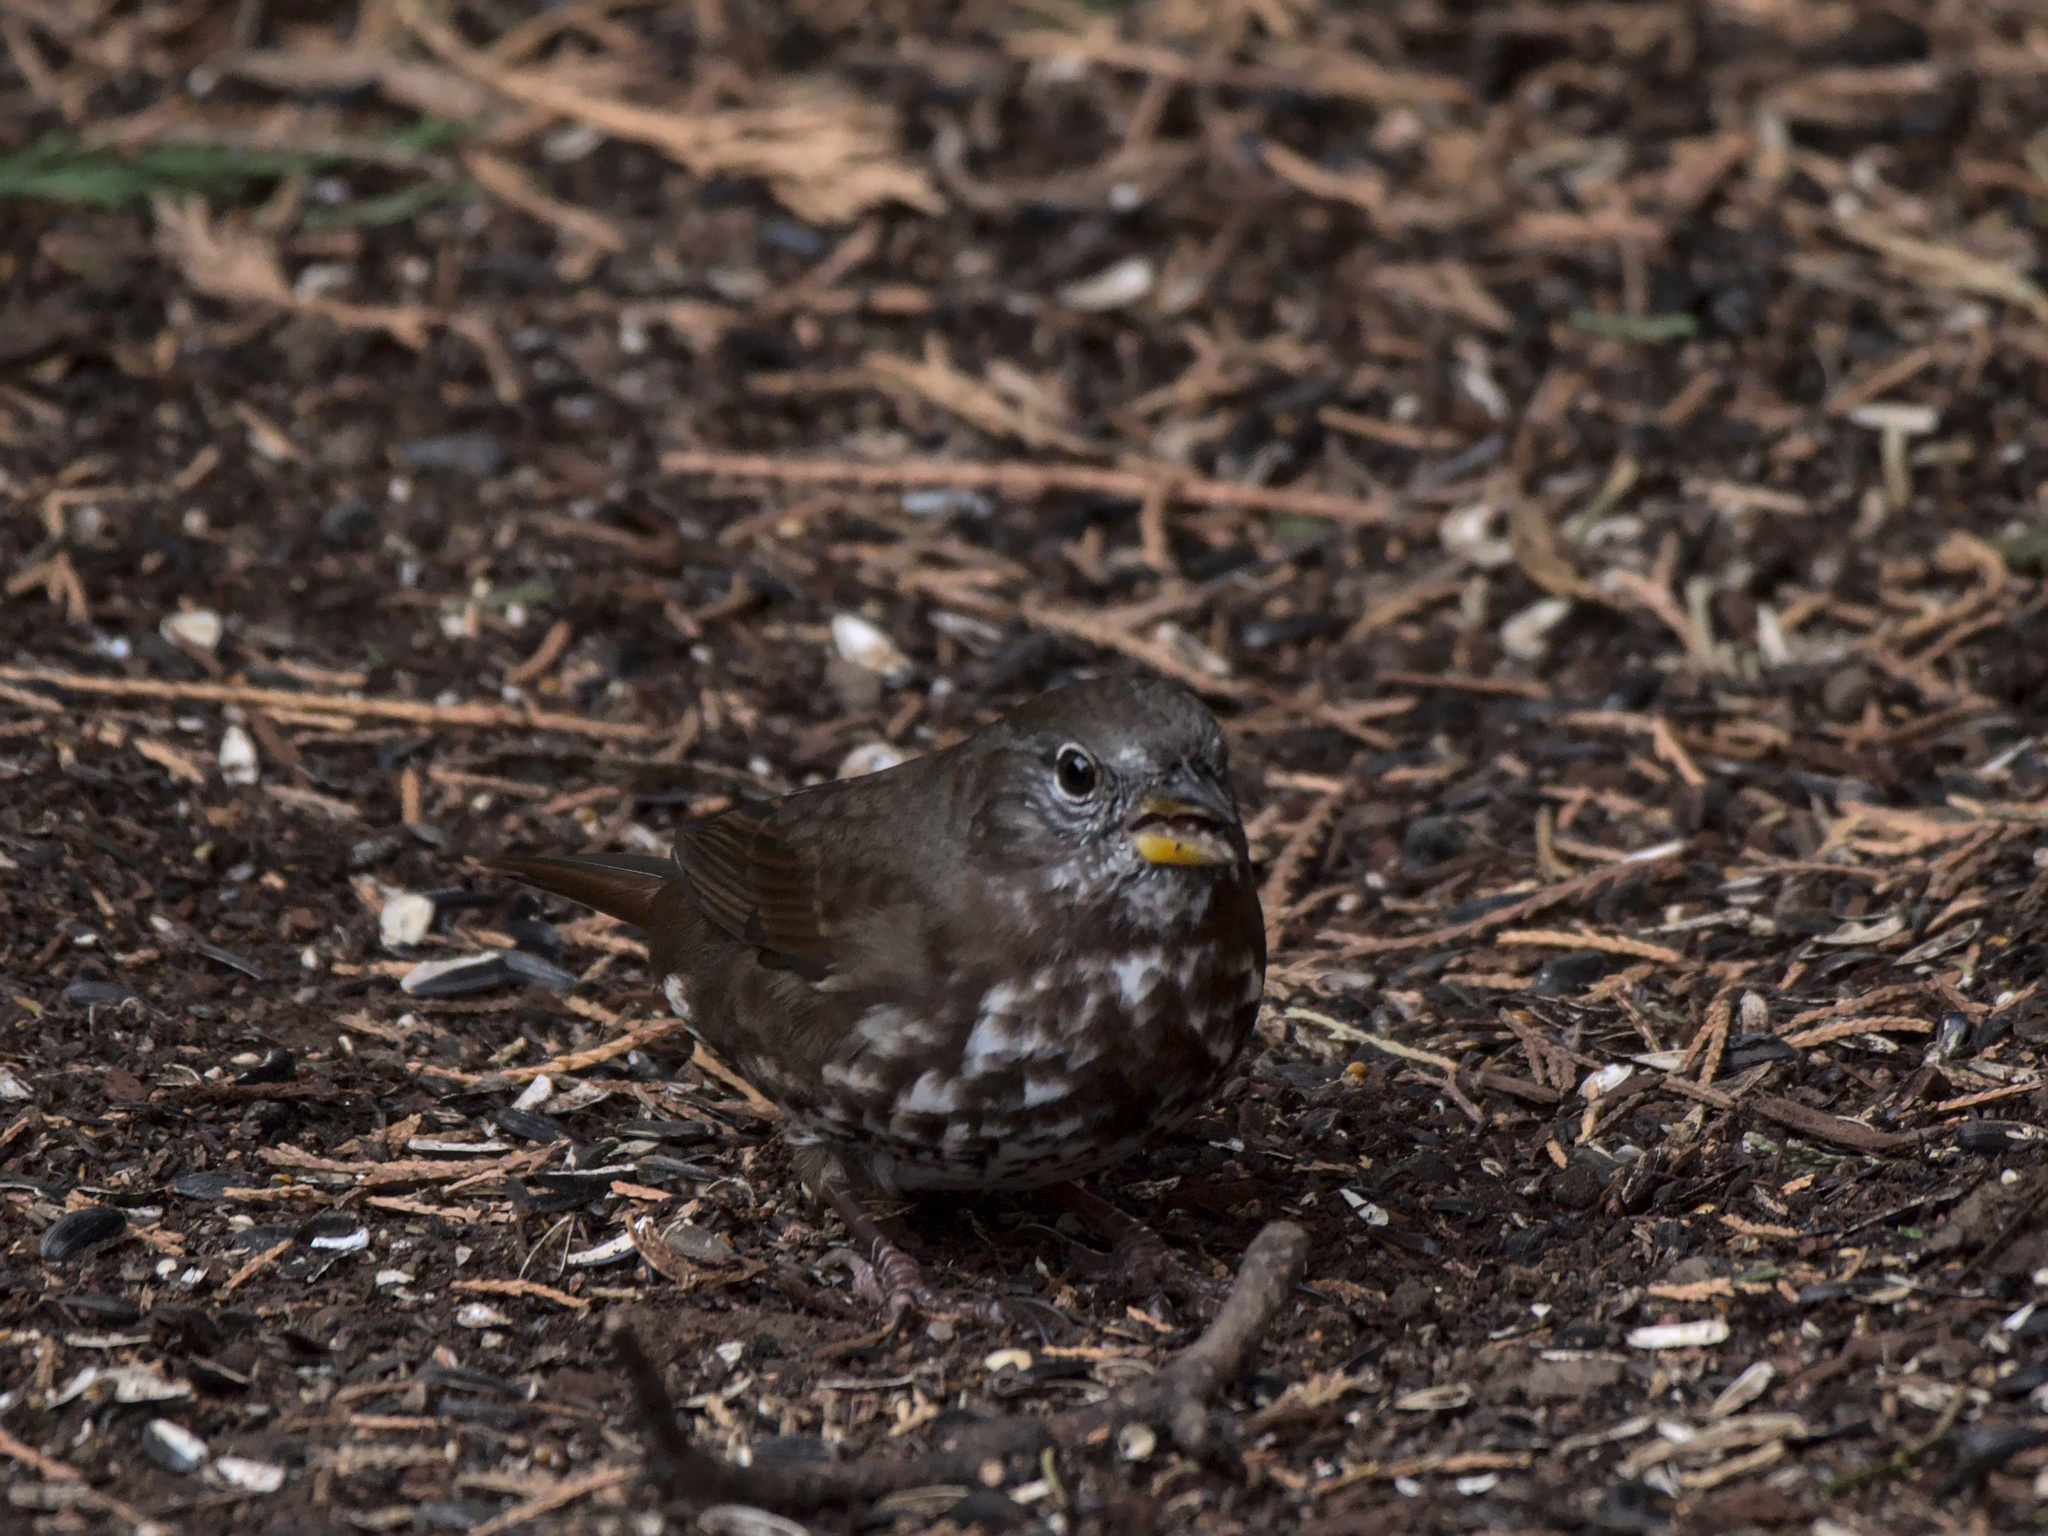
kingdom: Animalia
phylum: Chordata
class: Aves
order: Passeriformes
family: Passerellidae
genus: Passerella
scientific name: Passerella iliaca
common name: Fox sparrow
